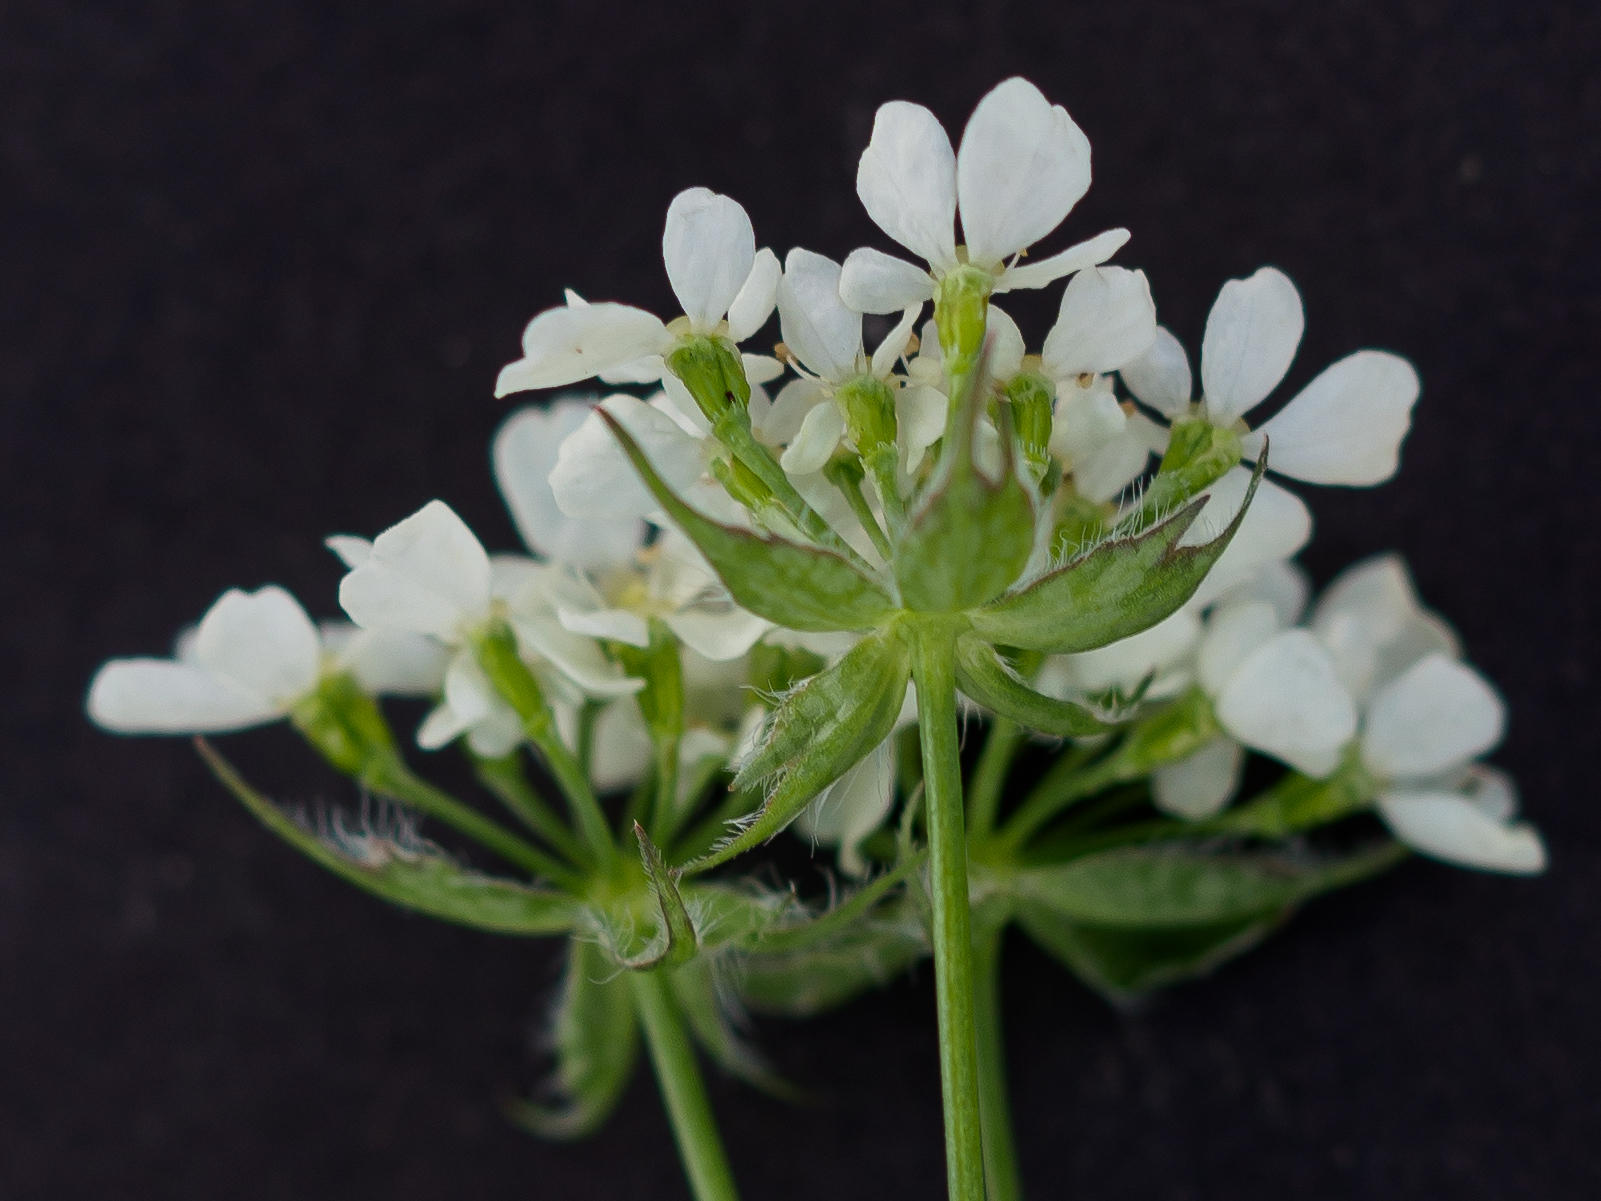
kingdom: Plantae
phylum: Tracheophyta
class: Magnoliopsida
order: Apiales
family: Apiaceae
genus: Anthriscus
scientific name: Anthriscus sylvestris
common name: Cow parsley
